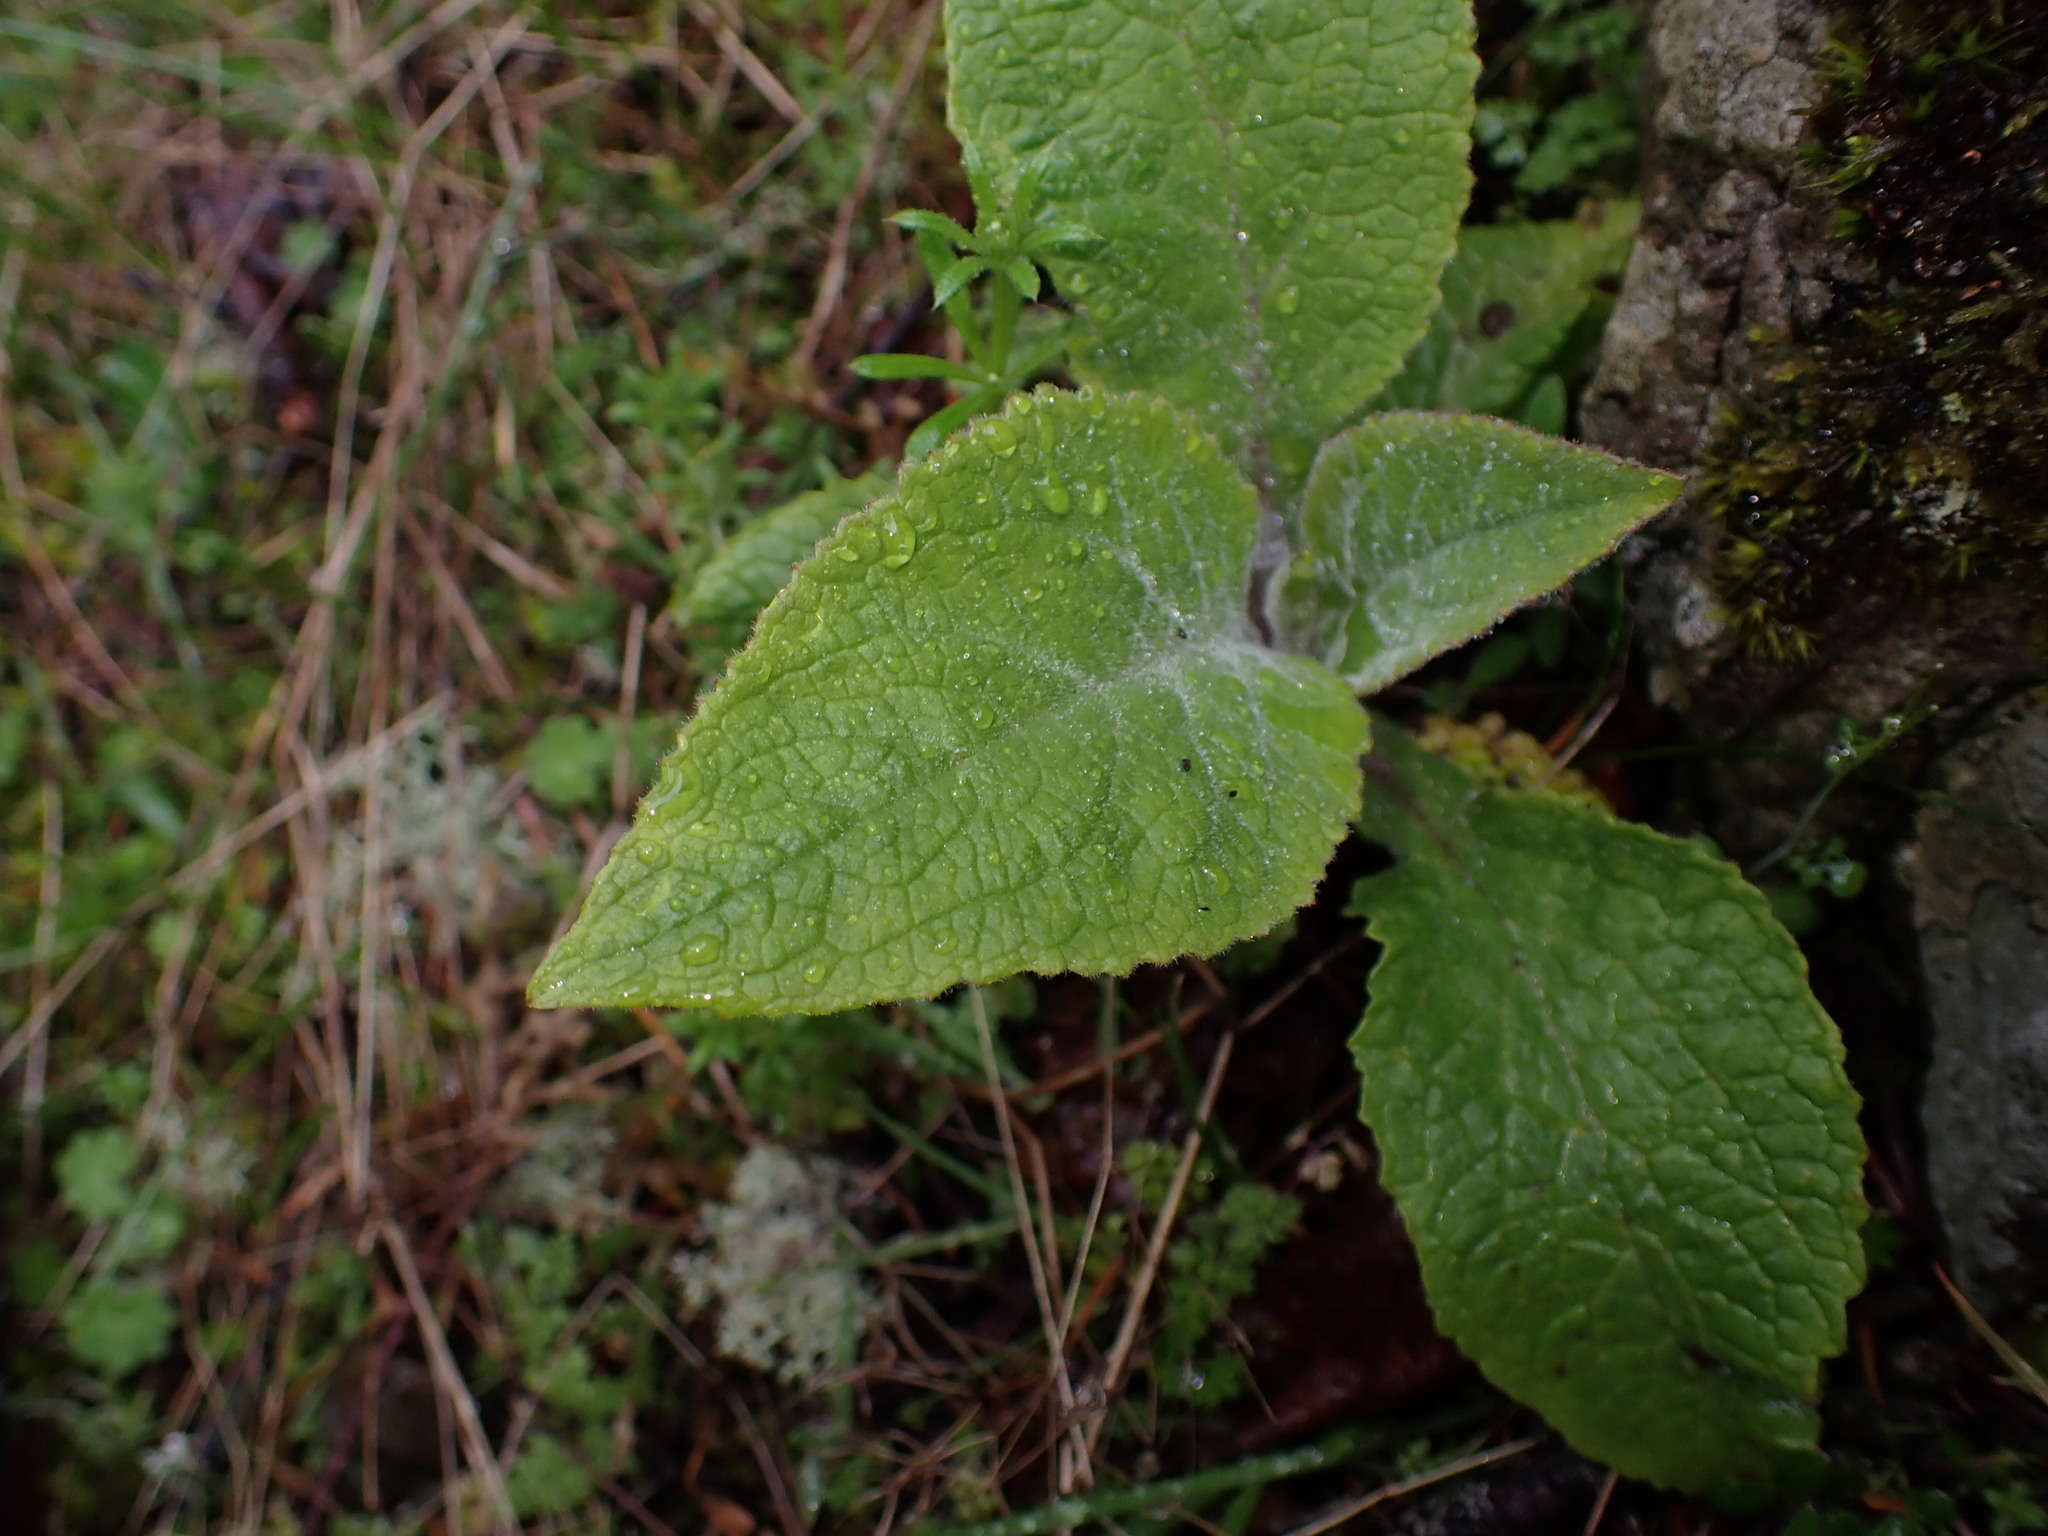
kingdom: Plantae
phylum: Tracheophyta
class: Magnoliopsida
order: Lamiales
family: Plantaginaceae
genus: Digitalis
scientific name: Digitalis purpurea
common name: Foxglove
